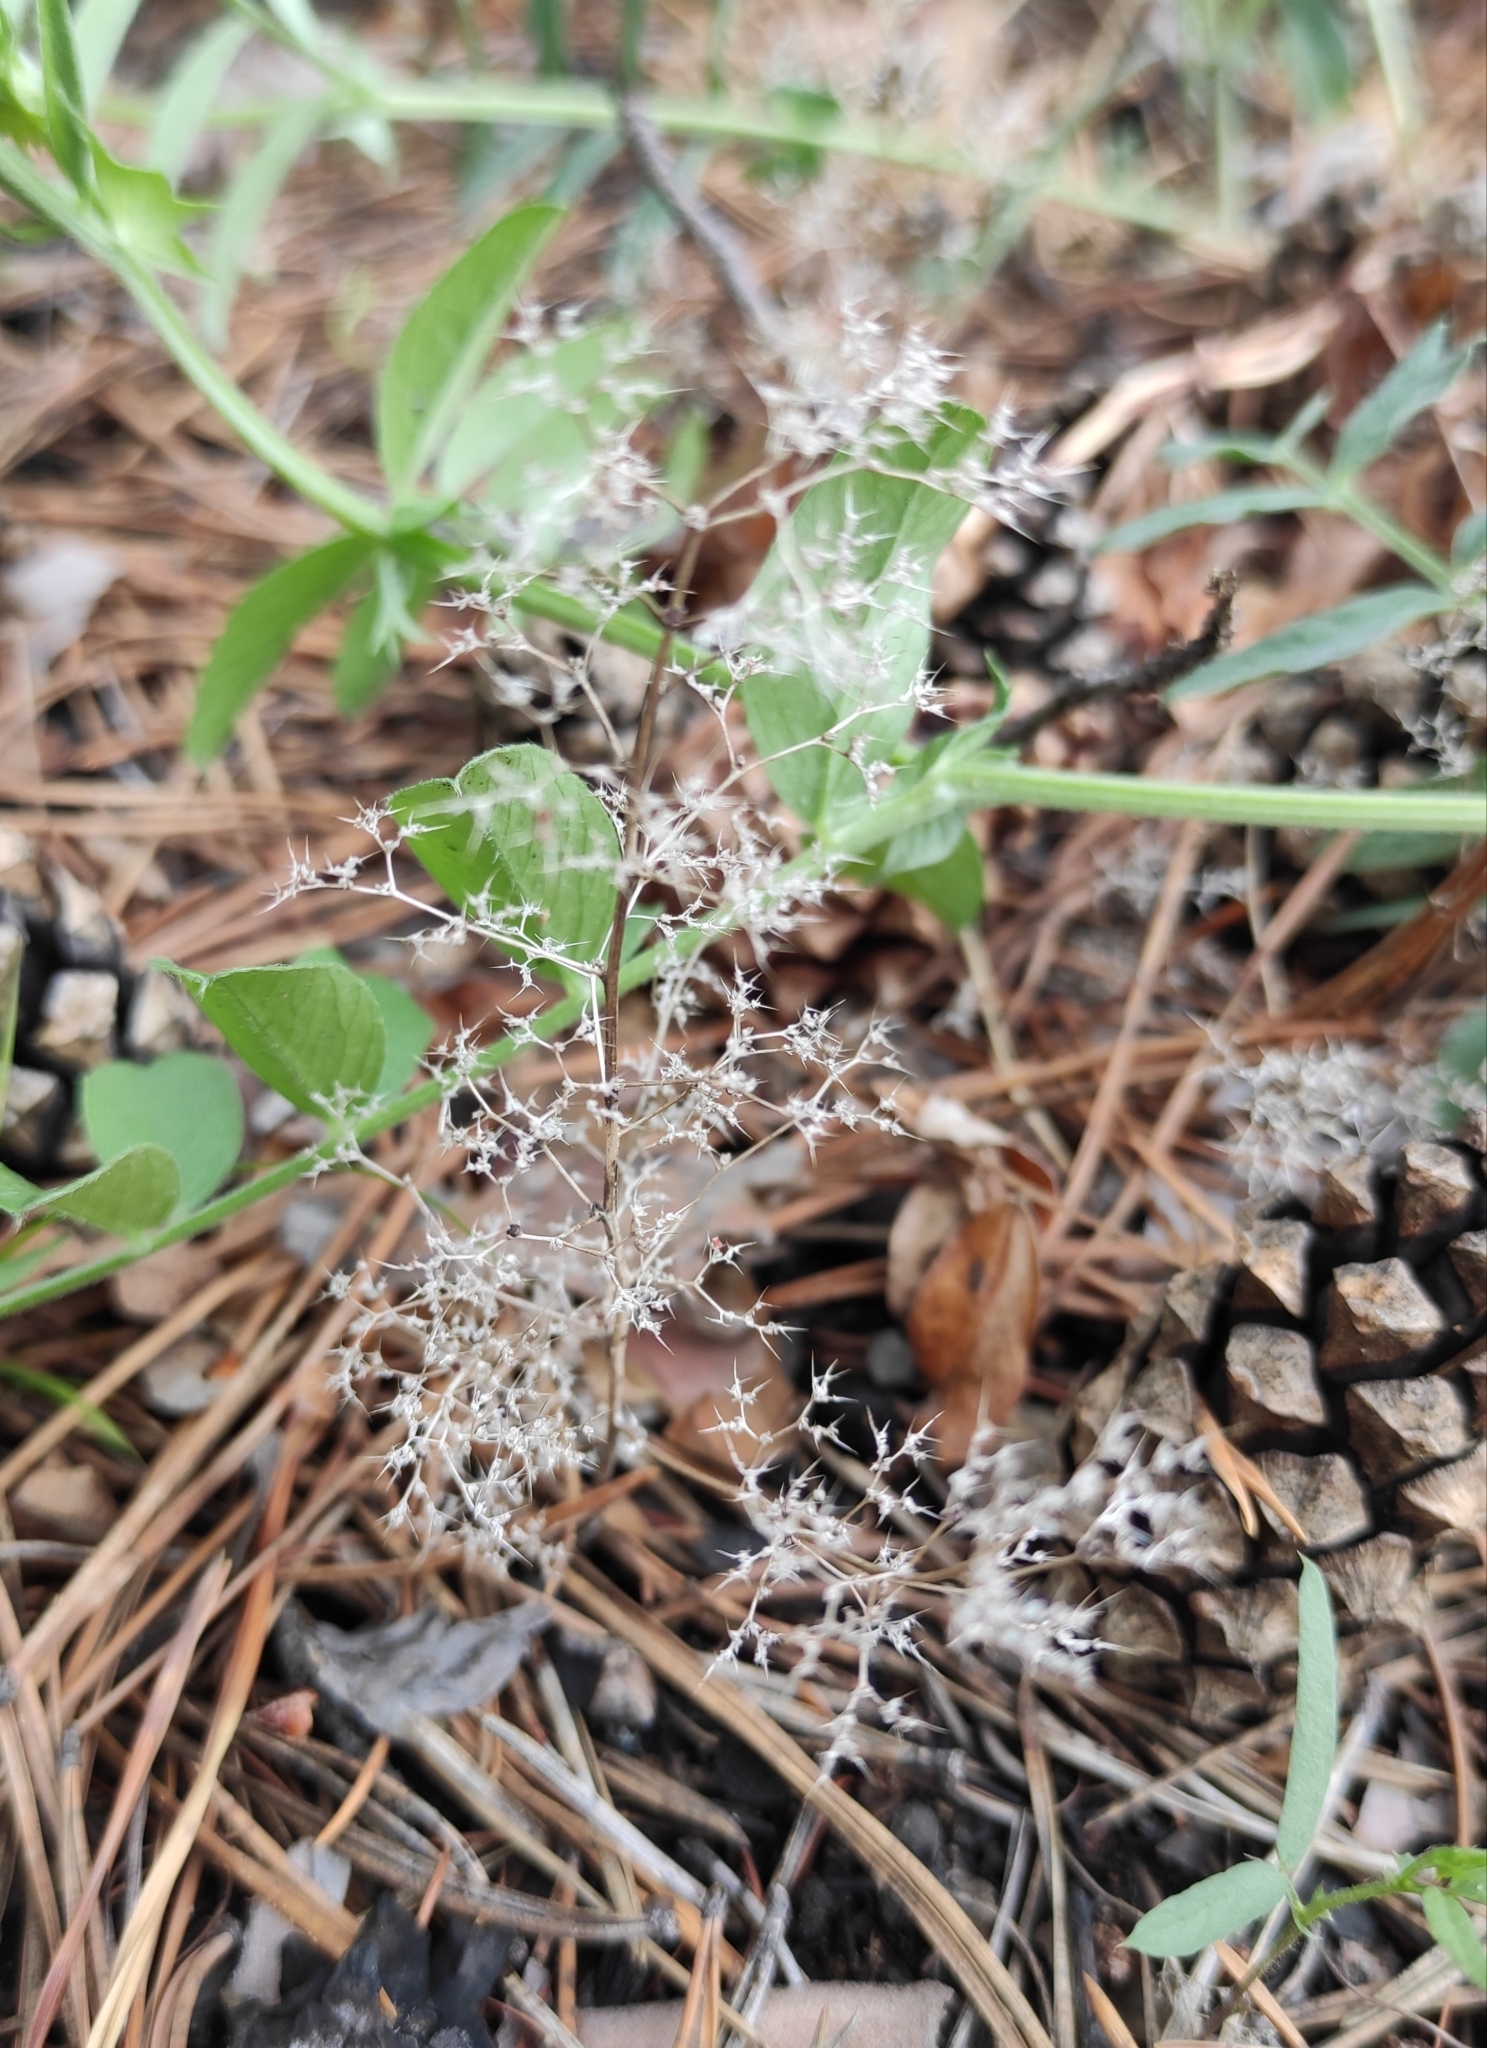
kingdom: Plantae
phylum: Tracheophyta
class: Magnoliopsida
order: Caryophyllales
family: Amaranthaceae
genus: Teloxys
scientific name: Teloxys aristata
